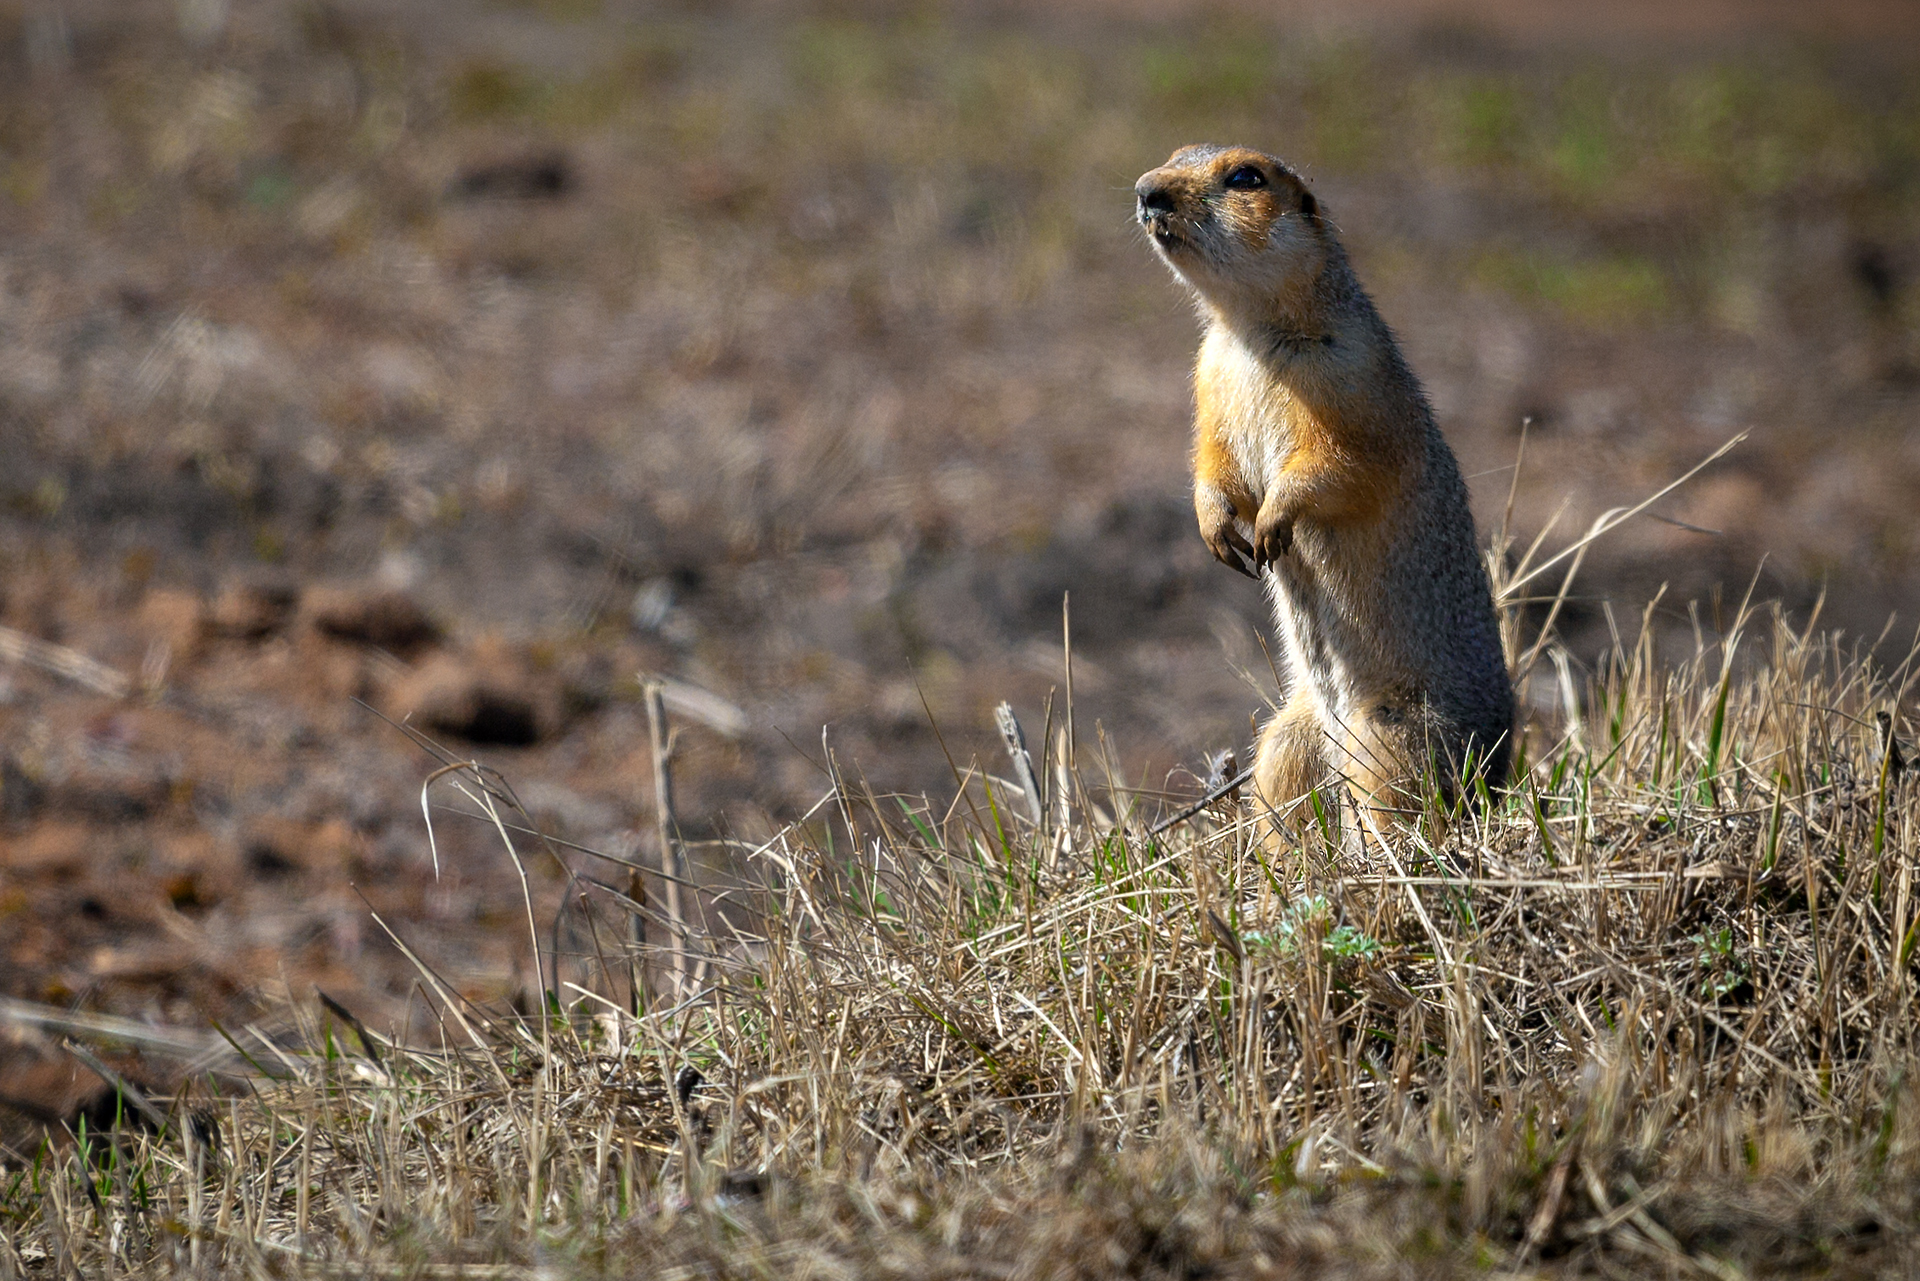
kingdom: Animalia
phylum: Chordata
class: Mammalia
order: Rodentia
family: Sciuridae
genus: Spermophilus
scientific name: Spermophilus major
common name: Russet ground squirrel
